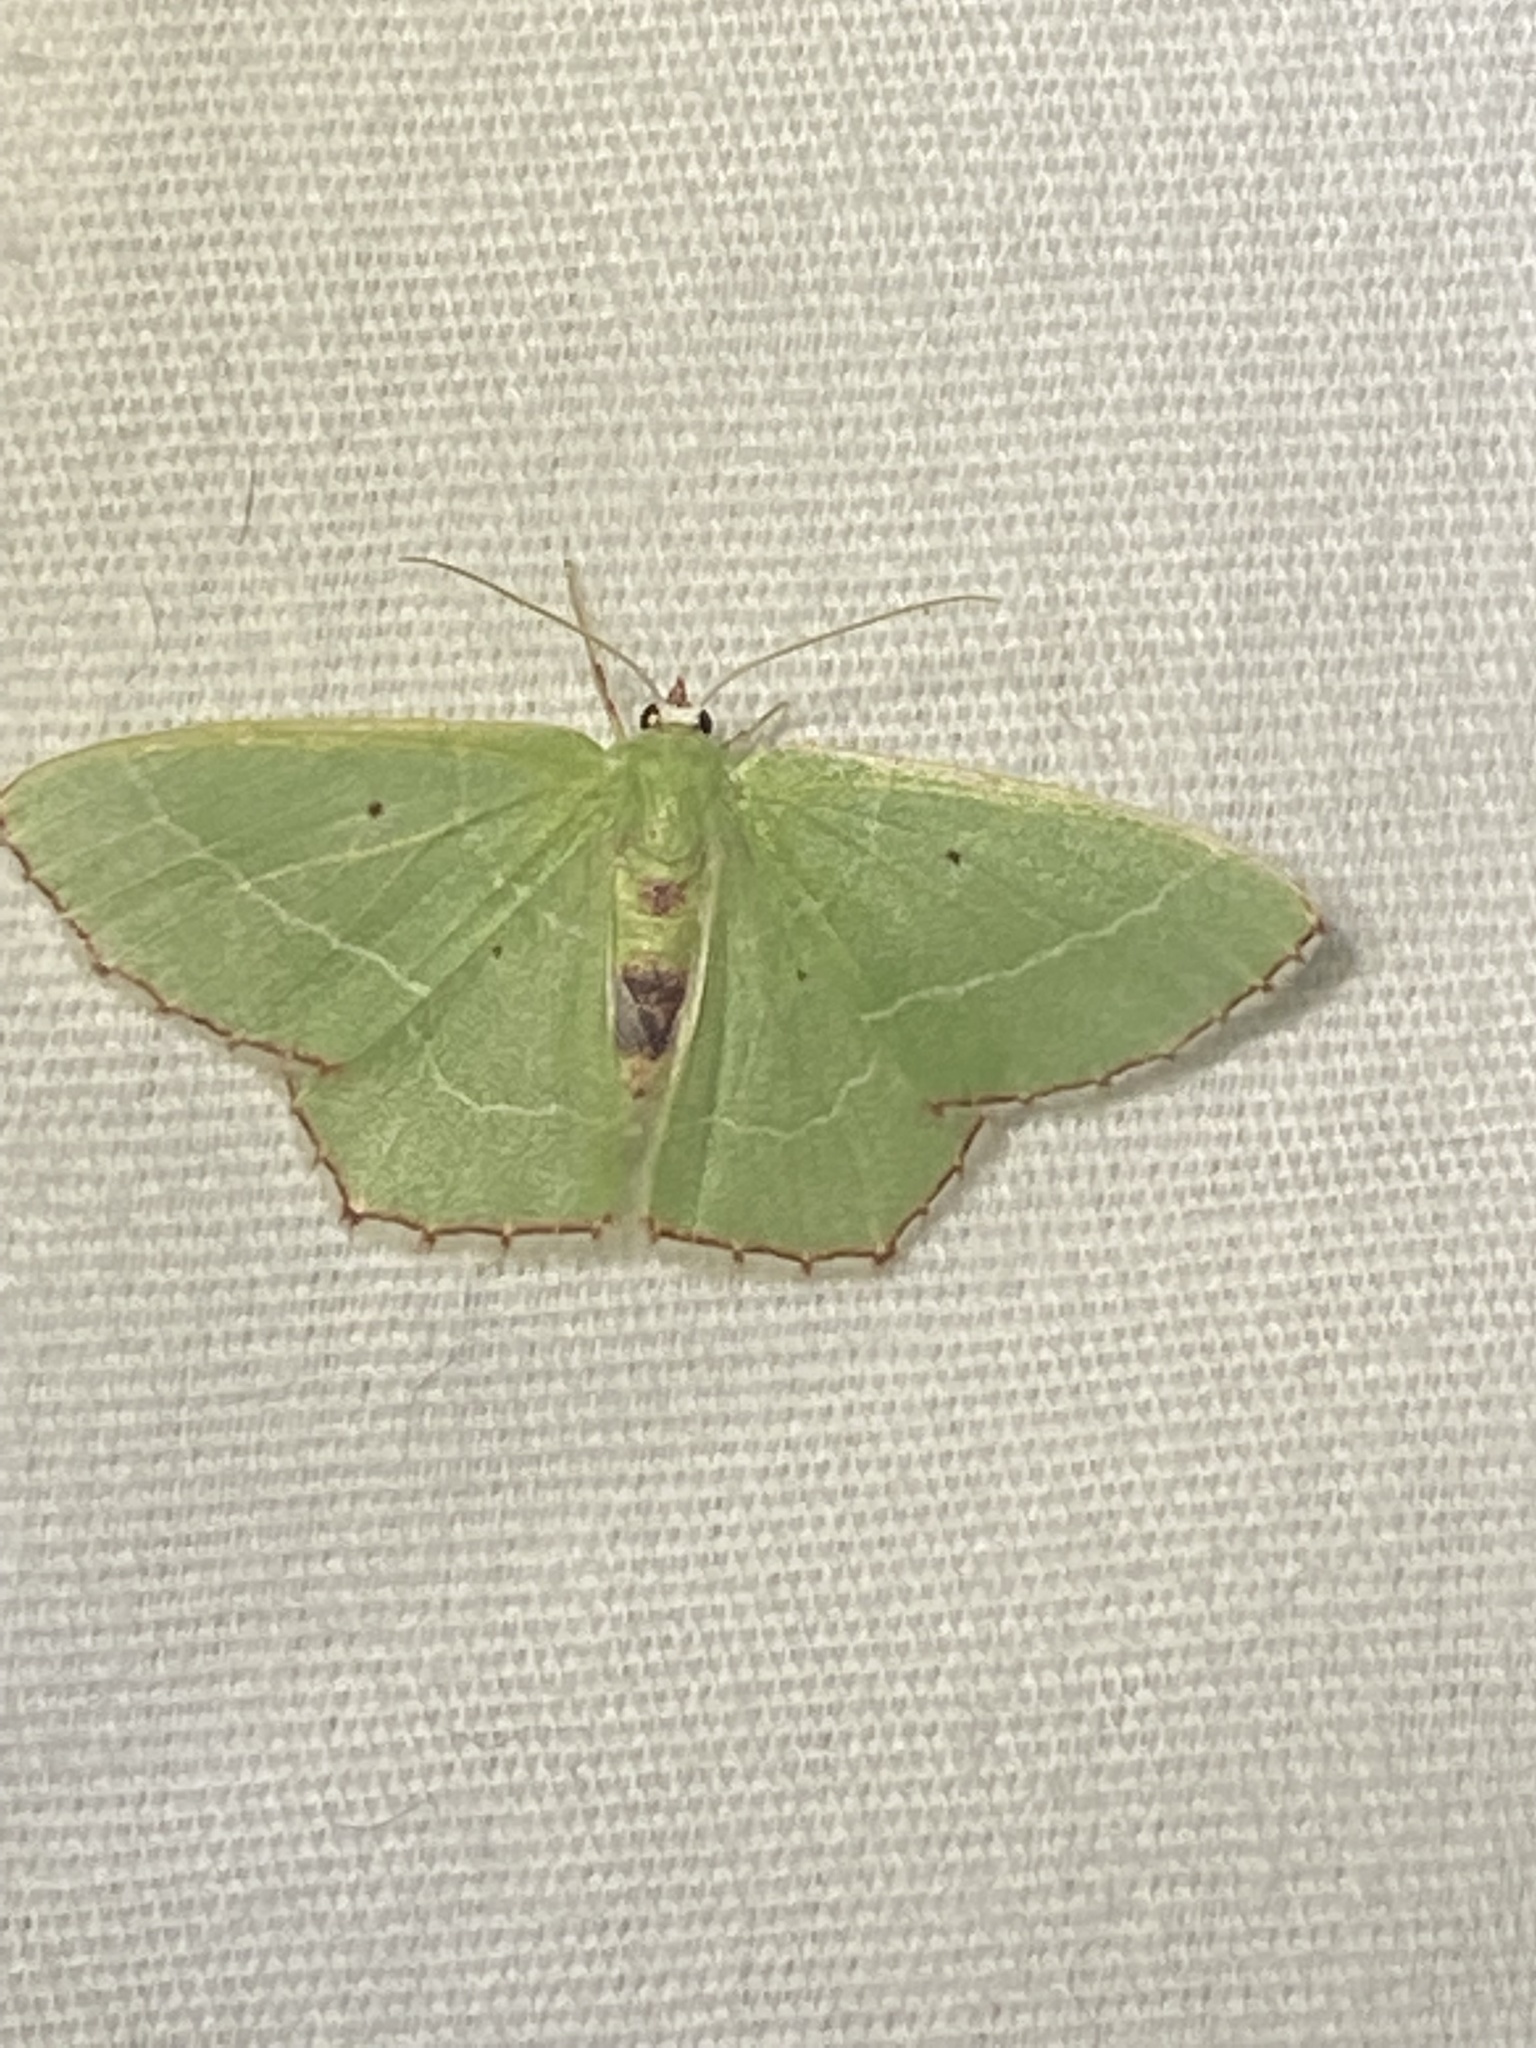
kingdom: Animalia
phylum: Arthropoda
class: Insecta
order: Lepidoptera
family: Geometridae
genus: Nemoria
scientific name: Nemoria saturiba
